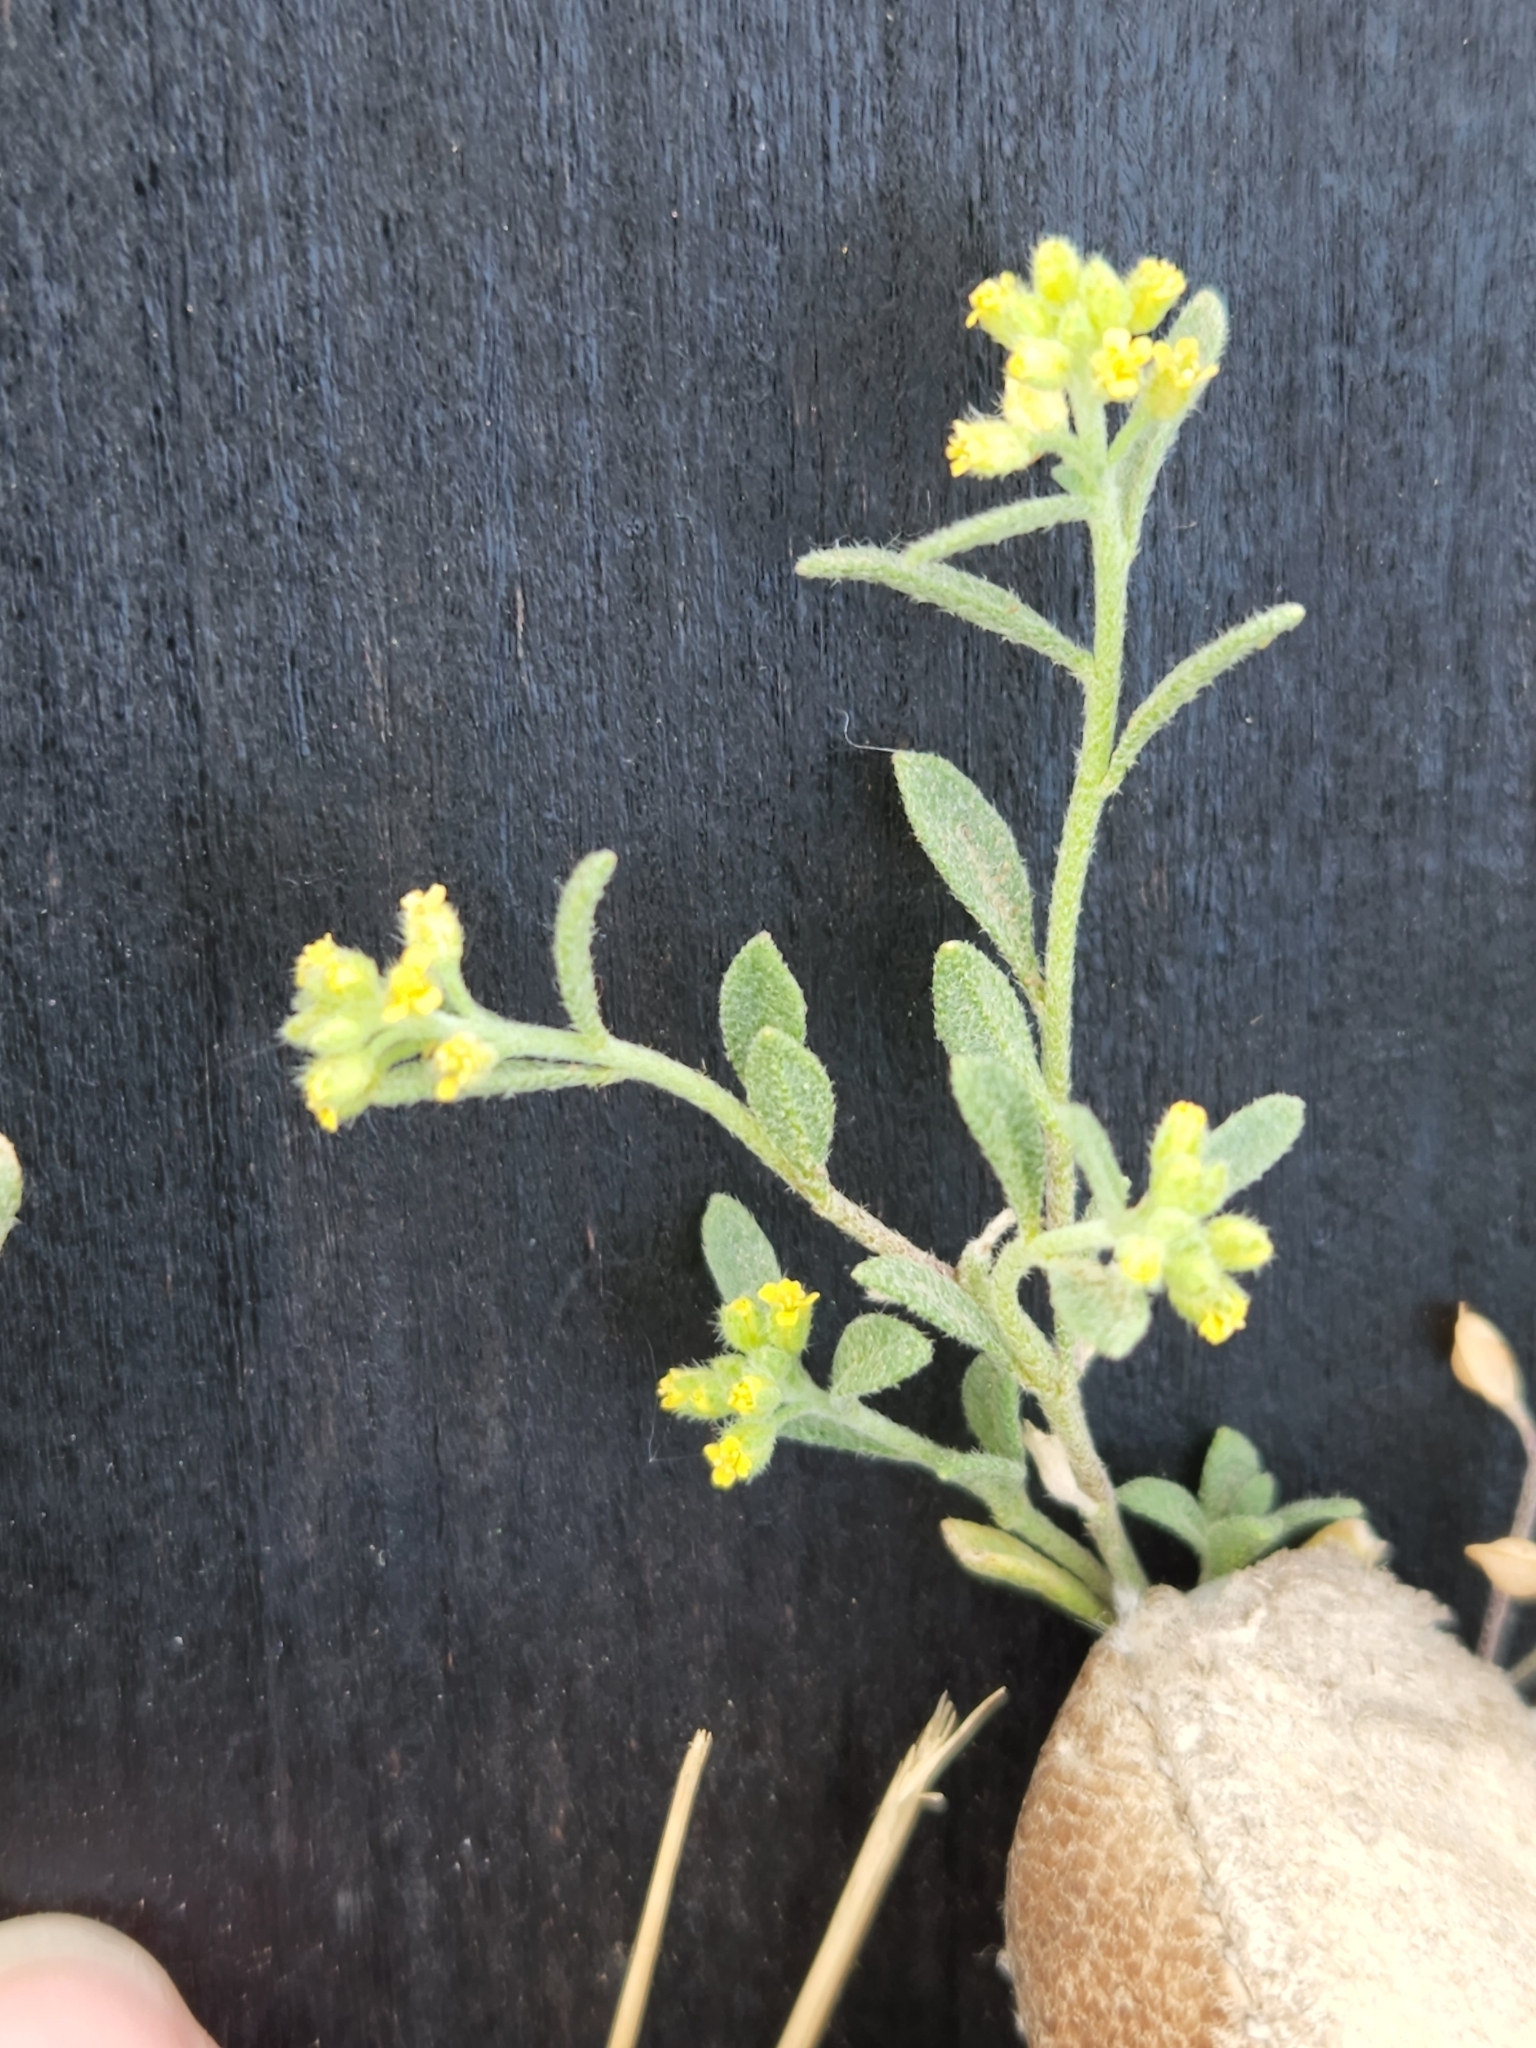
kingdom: Plantae
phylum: Tracheophyta
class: Magnoliopsida
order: Brassicales
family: Brassicaceae
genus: Alyssum
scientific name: Alyssum simplex
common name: Alyssum
